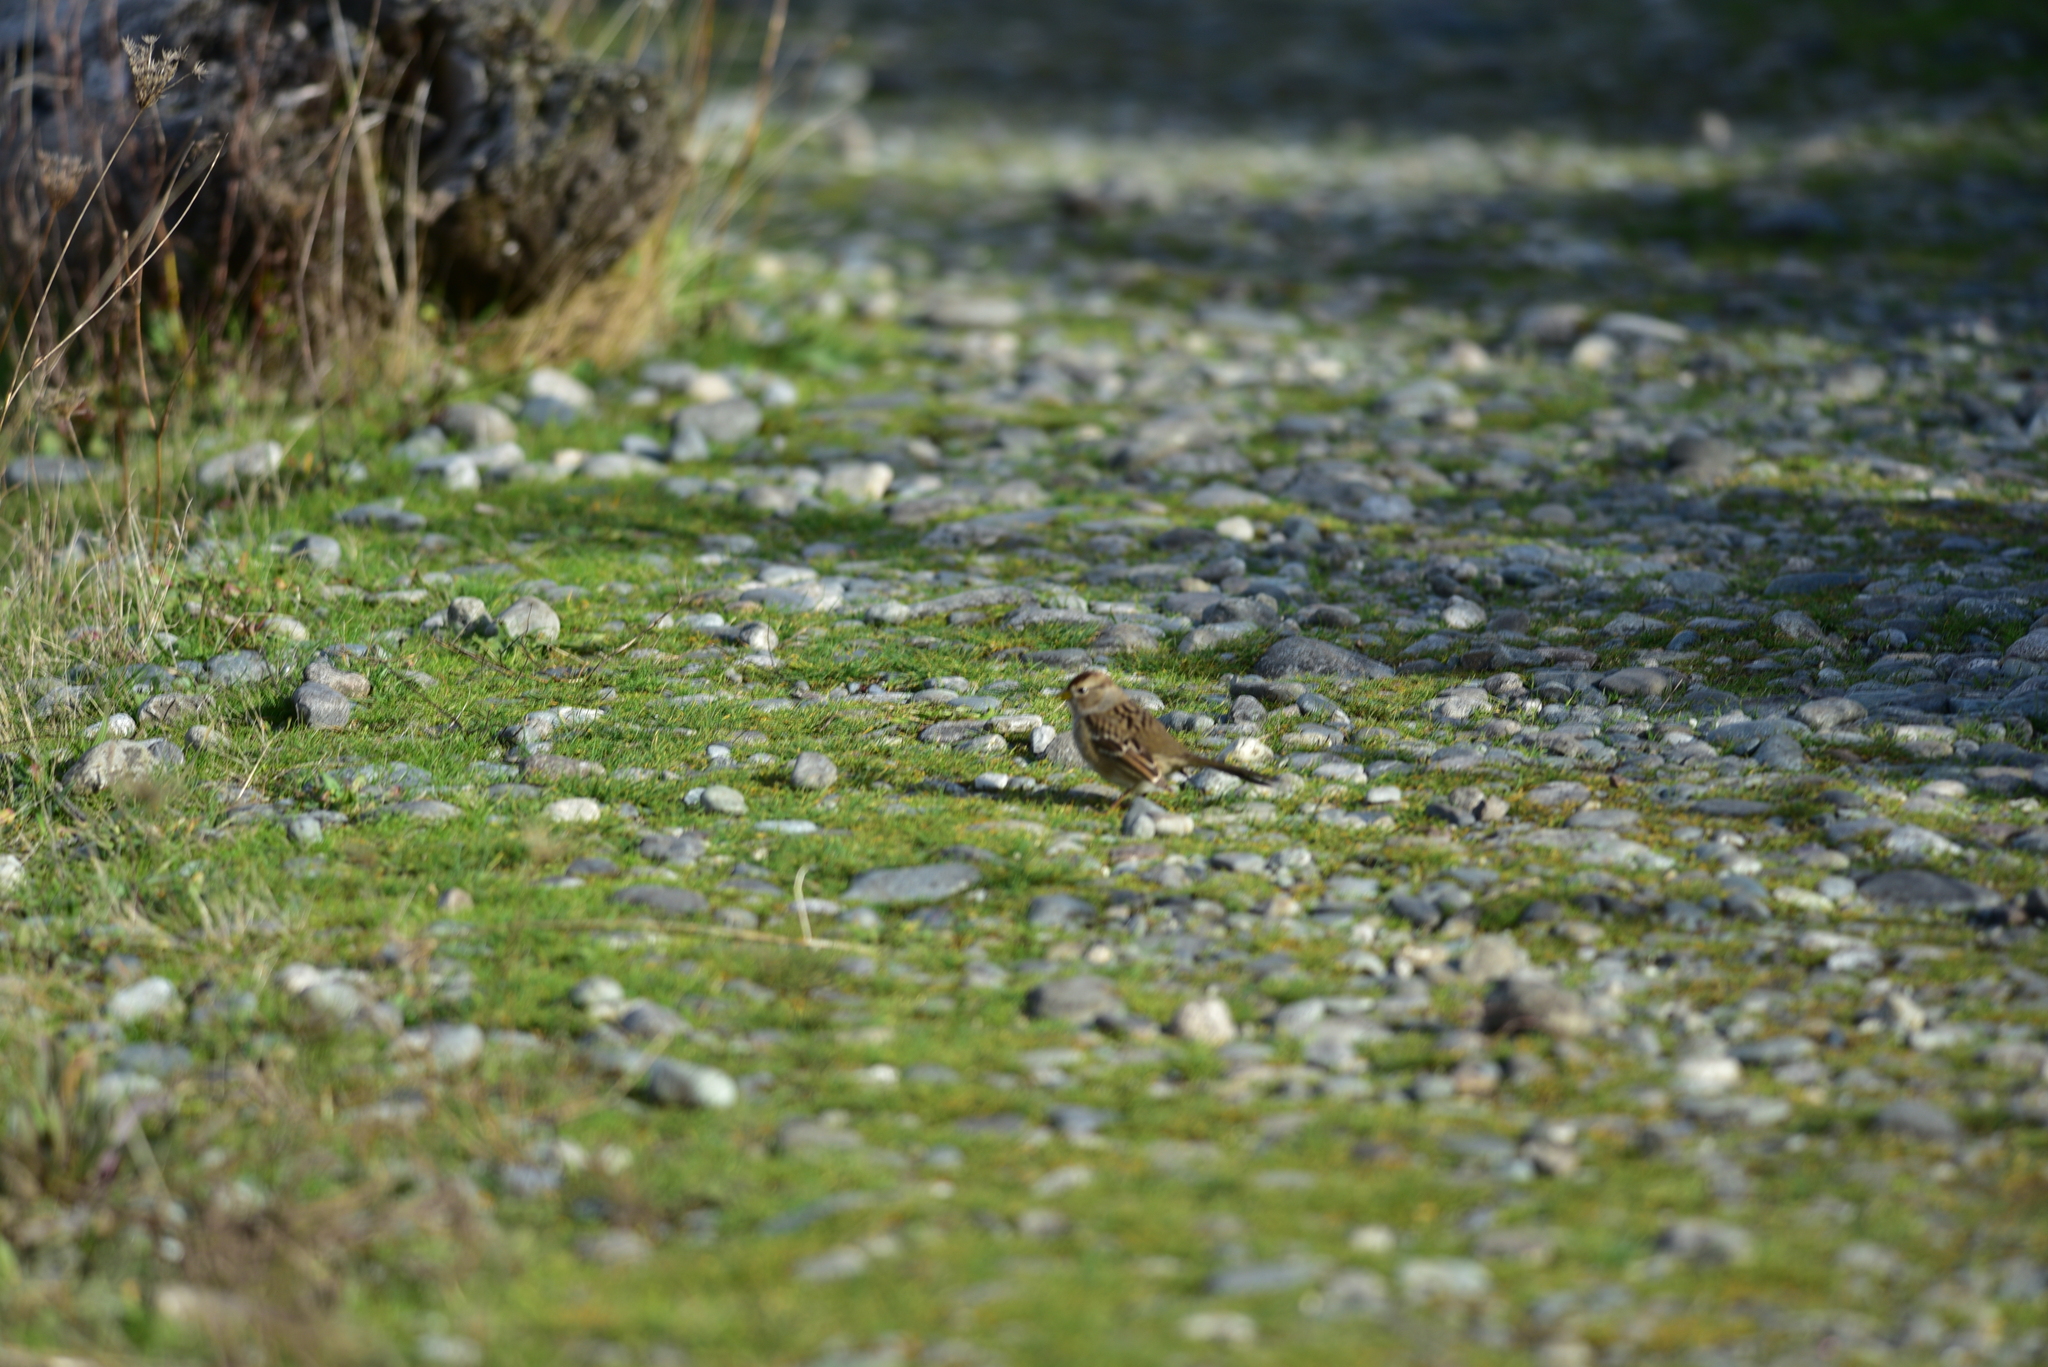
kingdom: Animalia
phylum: Chordata
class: Aves
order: Passeriformes
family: Passerellidae
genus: Zonotrichia
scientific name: Zonotrichia leucophrys
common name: White-crowned sparrow
